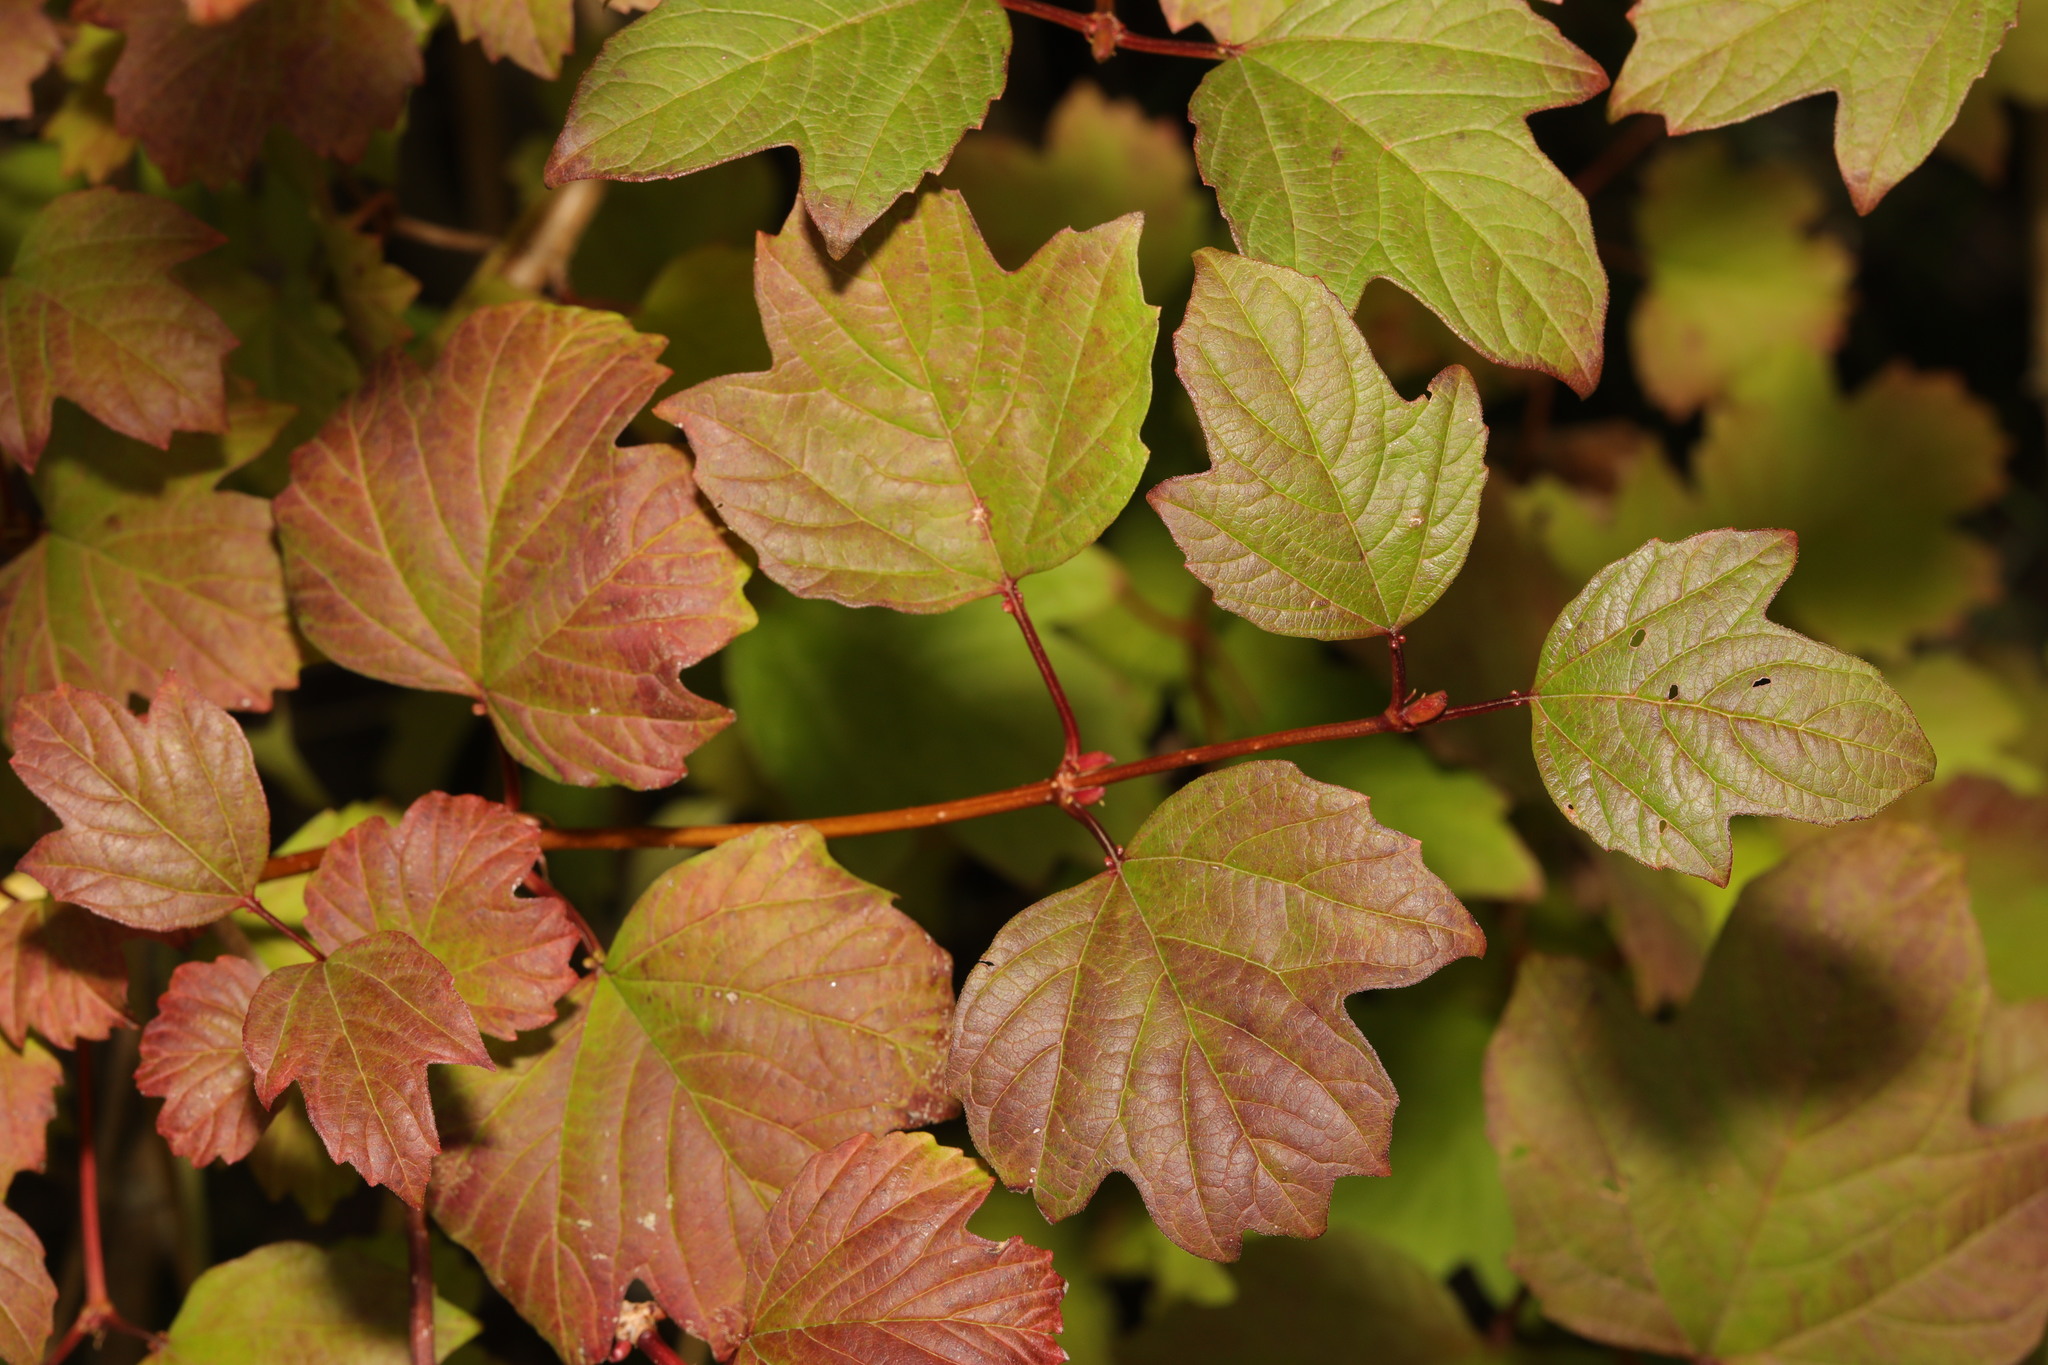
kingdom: Plantae
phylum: Tracheophyta
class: Magnoliopsida
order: Dipsacales
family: Viburnaceae
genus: Viburnum
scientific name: Viburnum opulus
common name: Guelder-rose
